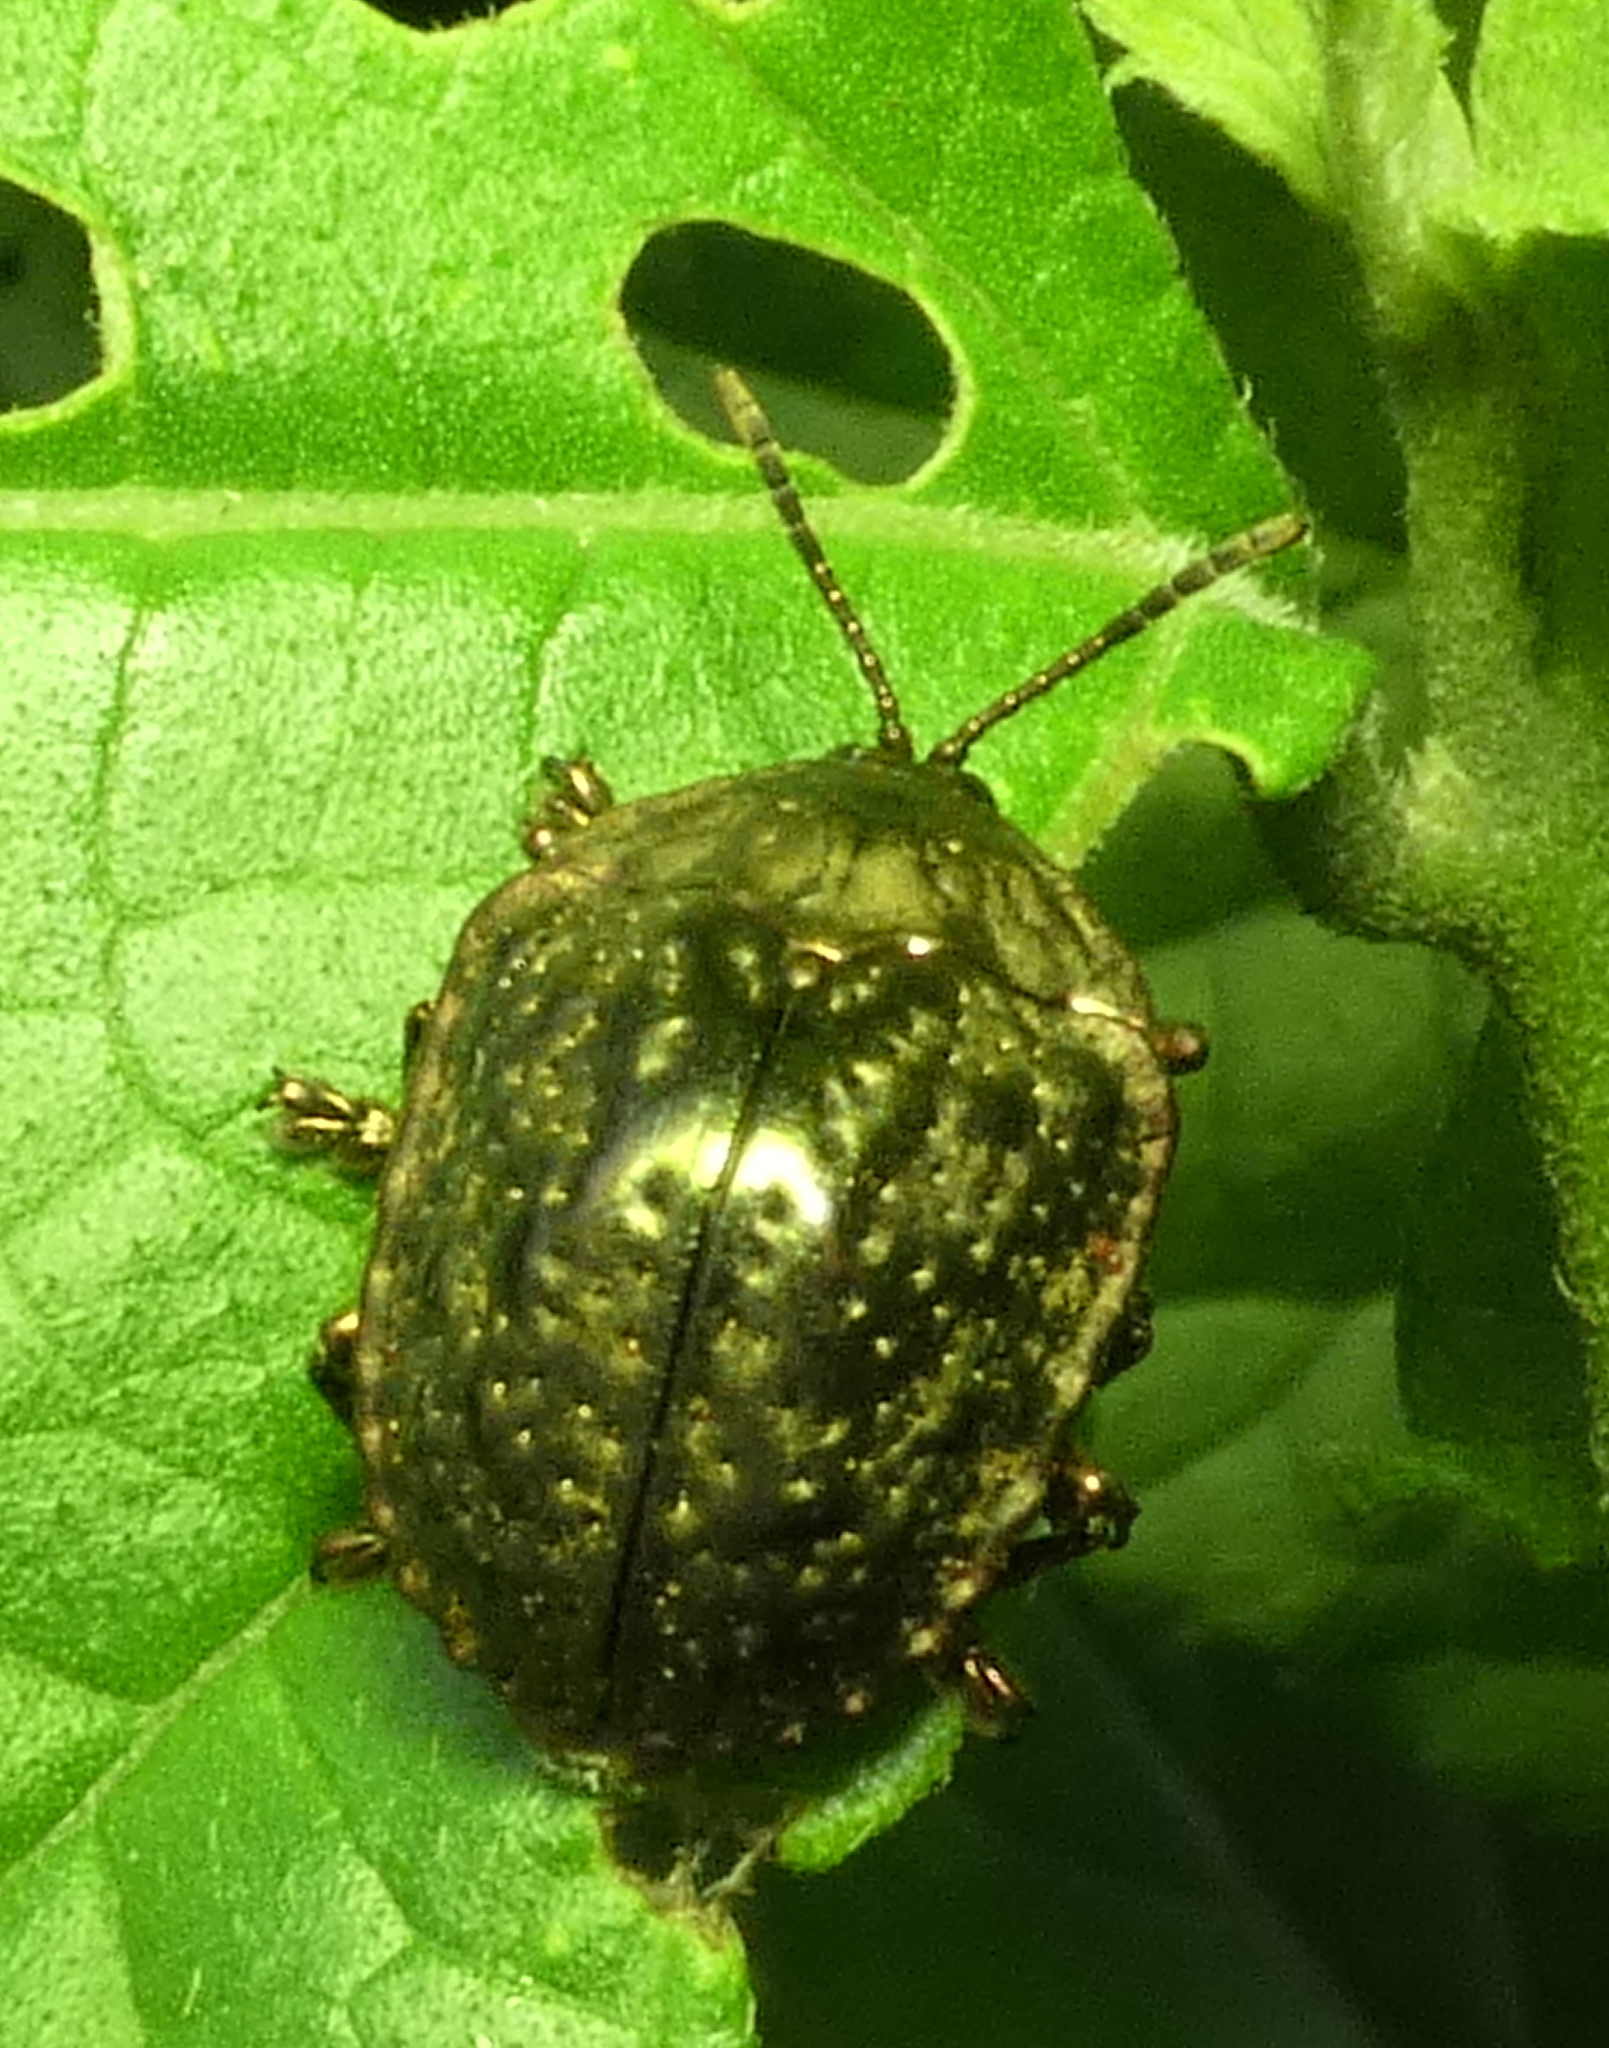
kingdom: Animalia
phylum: Arthropoda
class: Insecta
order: Coleoptera
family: Chrysomelidae
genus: Polychalca
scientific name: Polychalca aerea
